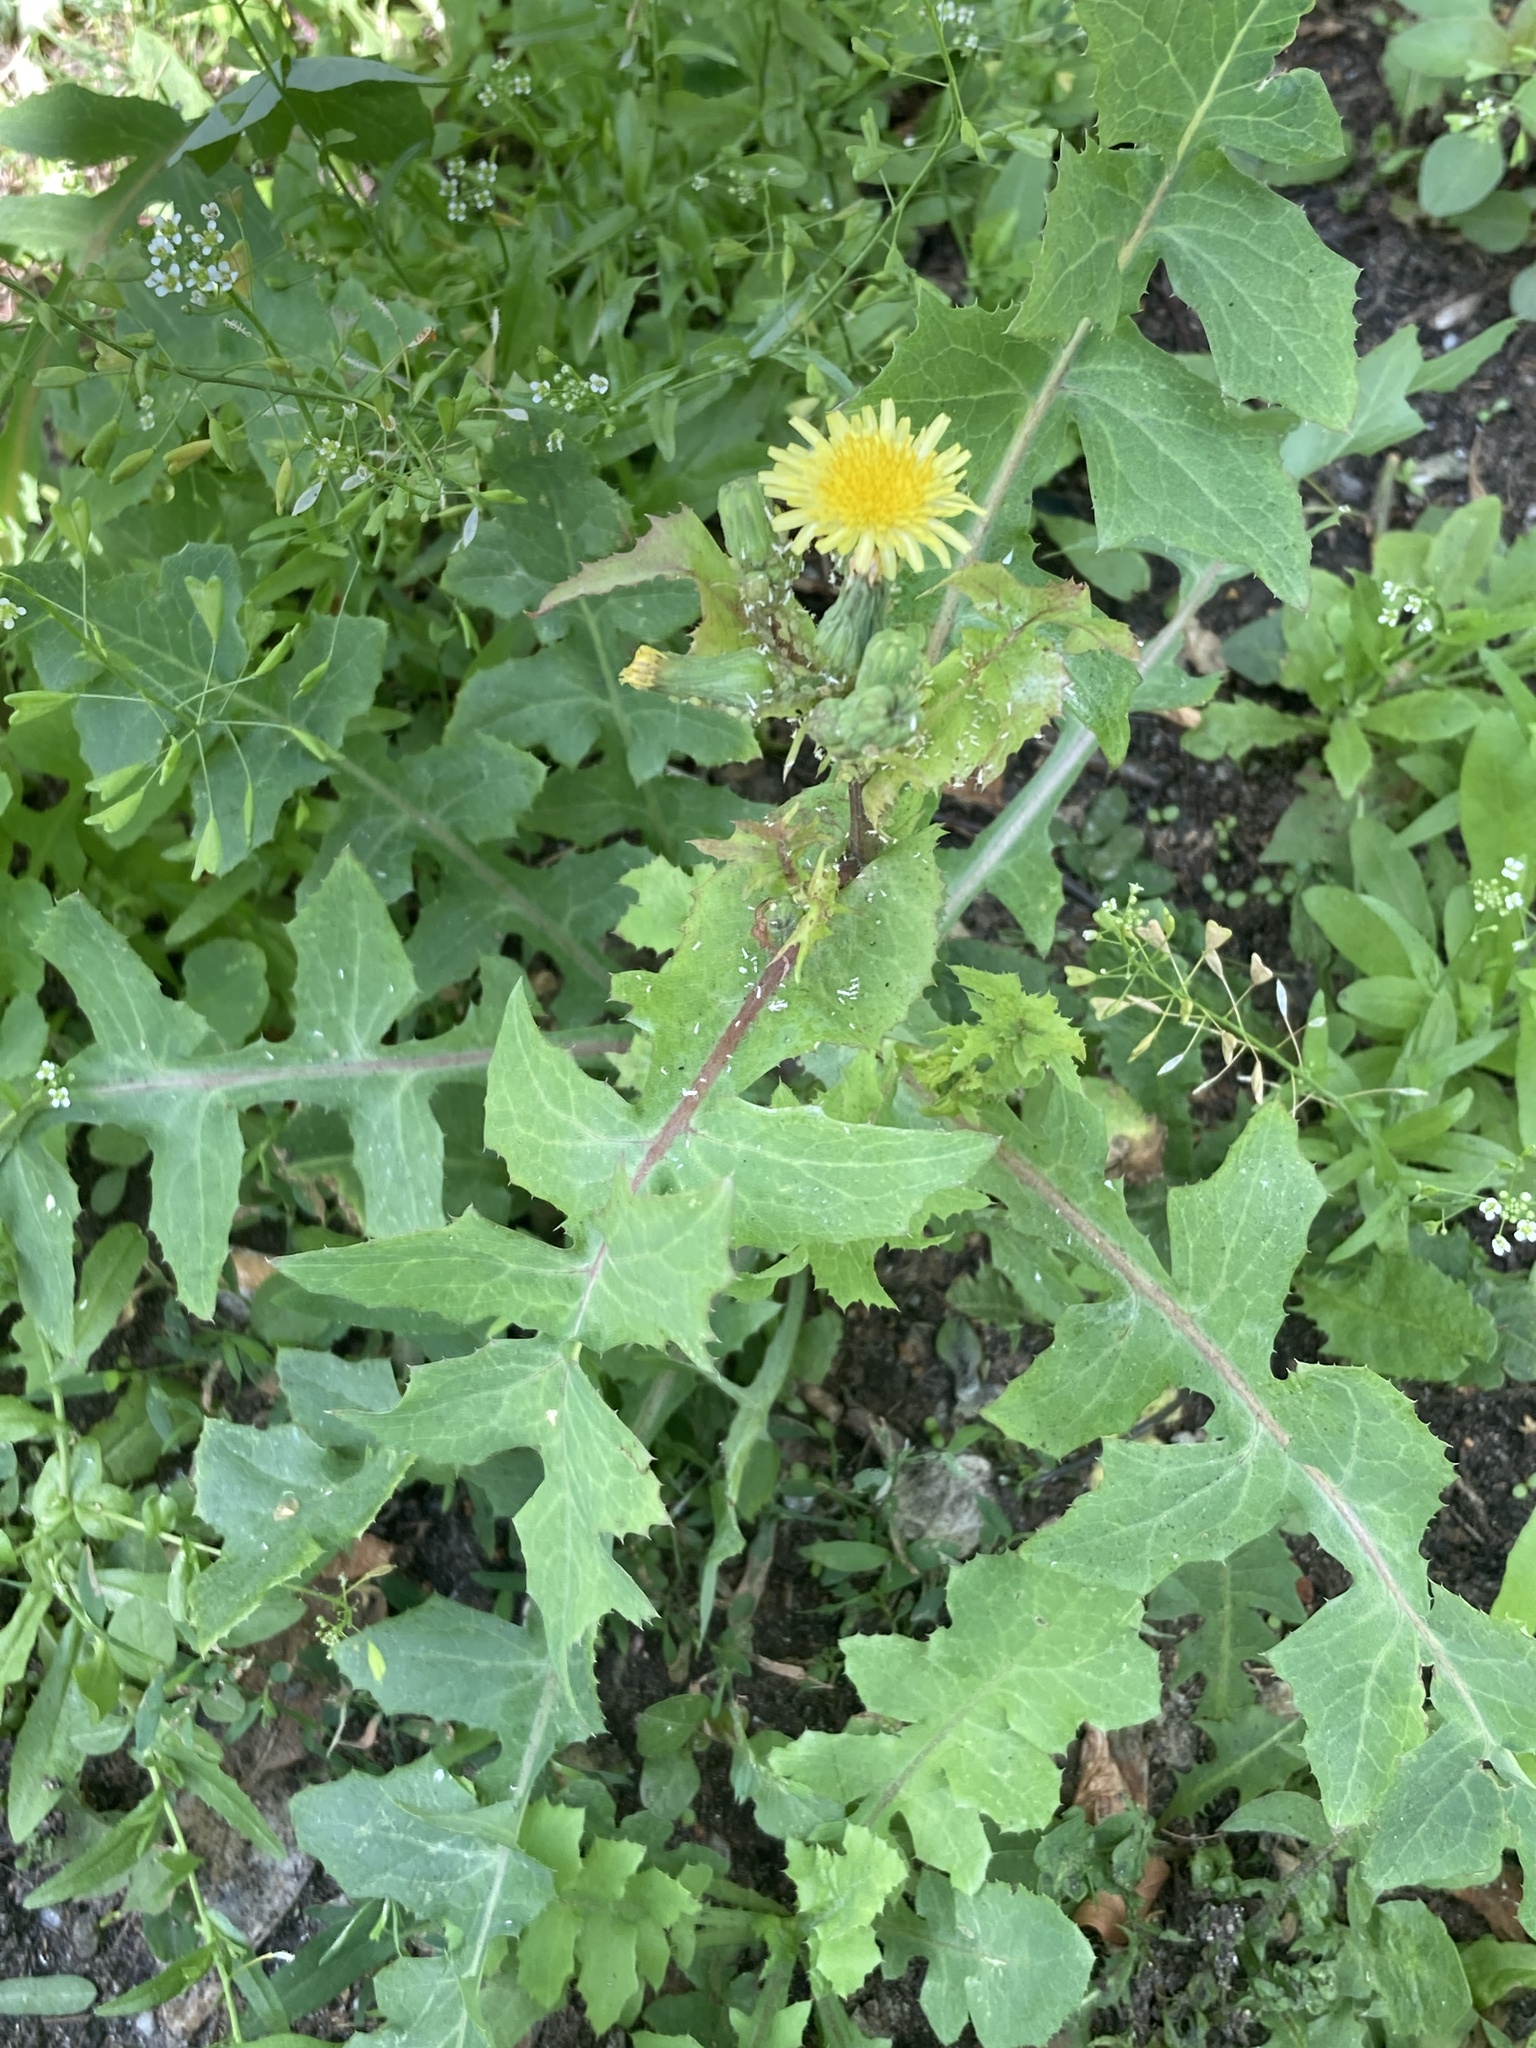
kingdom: Plantae
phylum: Tracheophyta
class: Magnoliopsida
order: Asterales
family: Asteraceae
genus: Sonchus
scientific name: Sonchus oleraceus
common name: Common sowthistle
